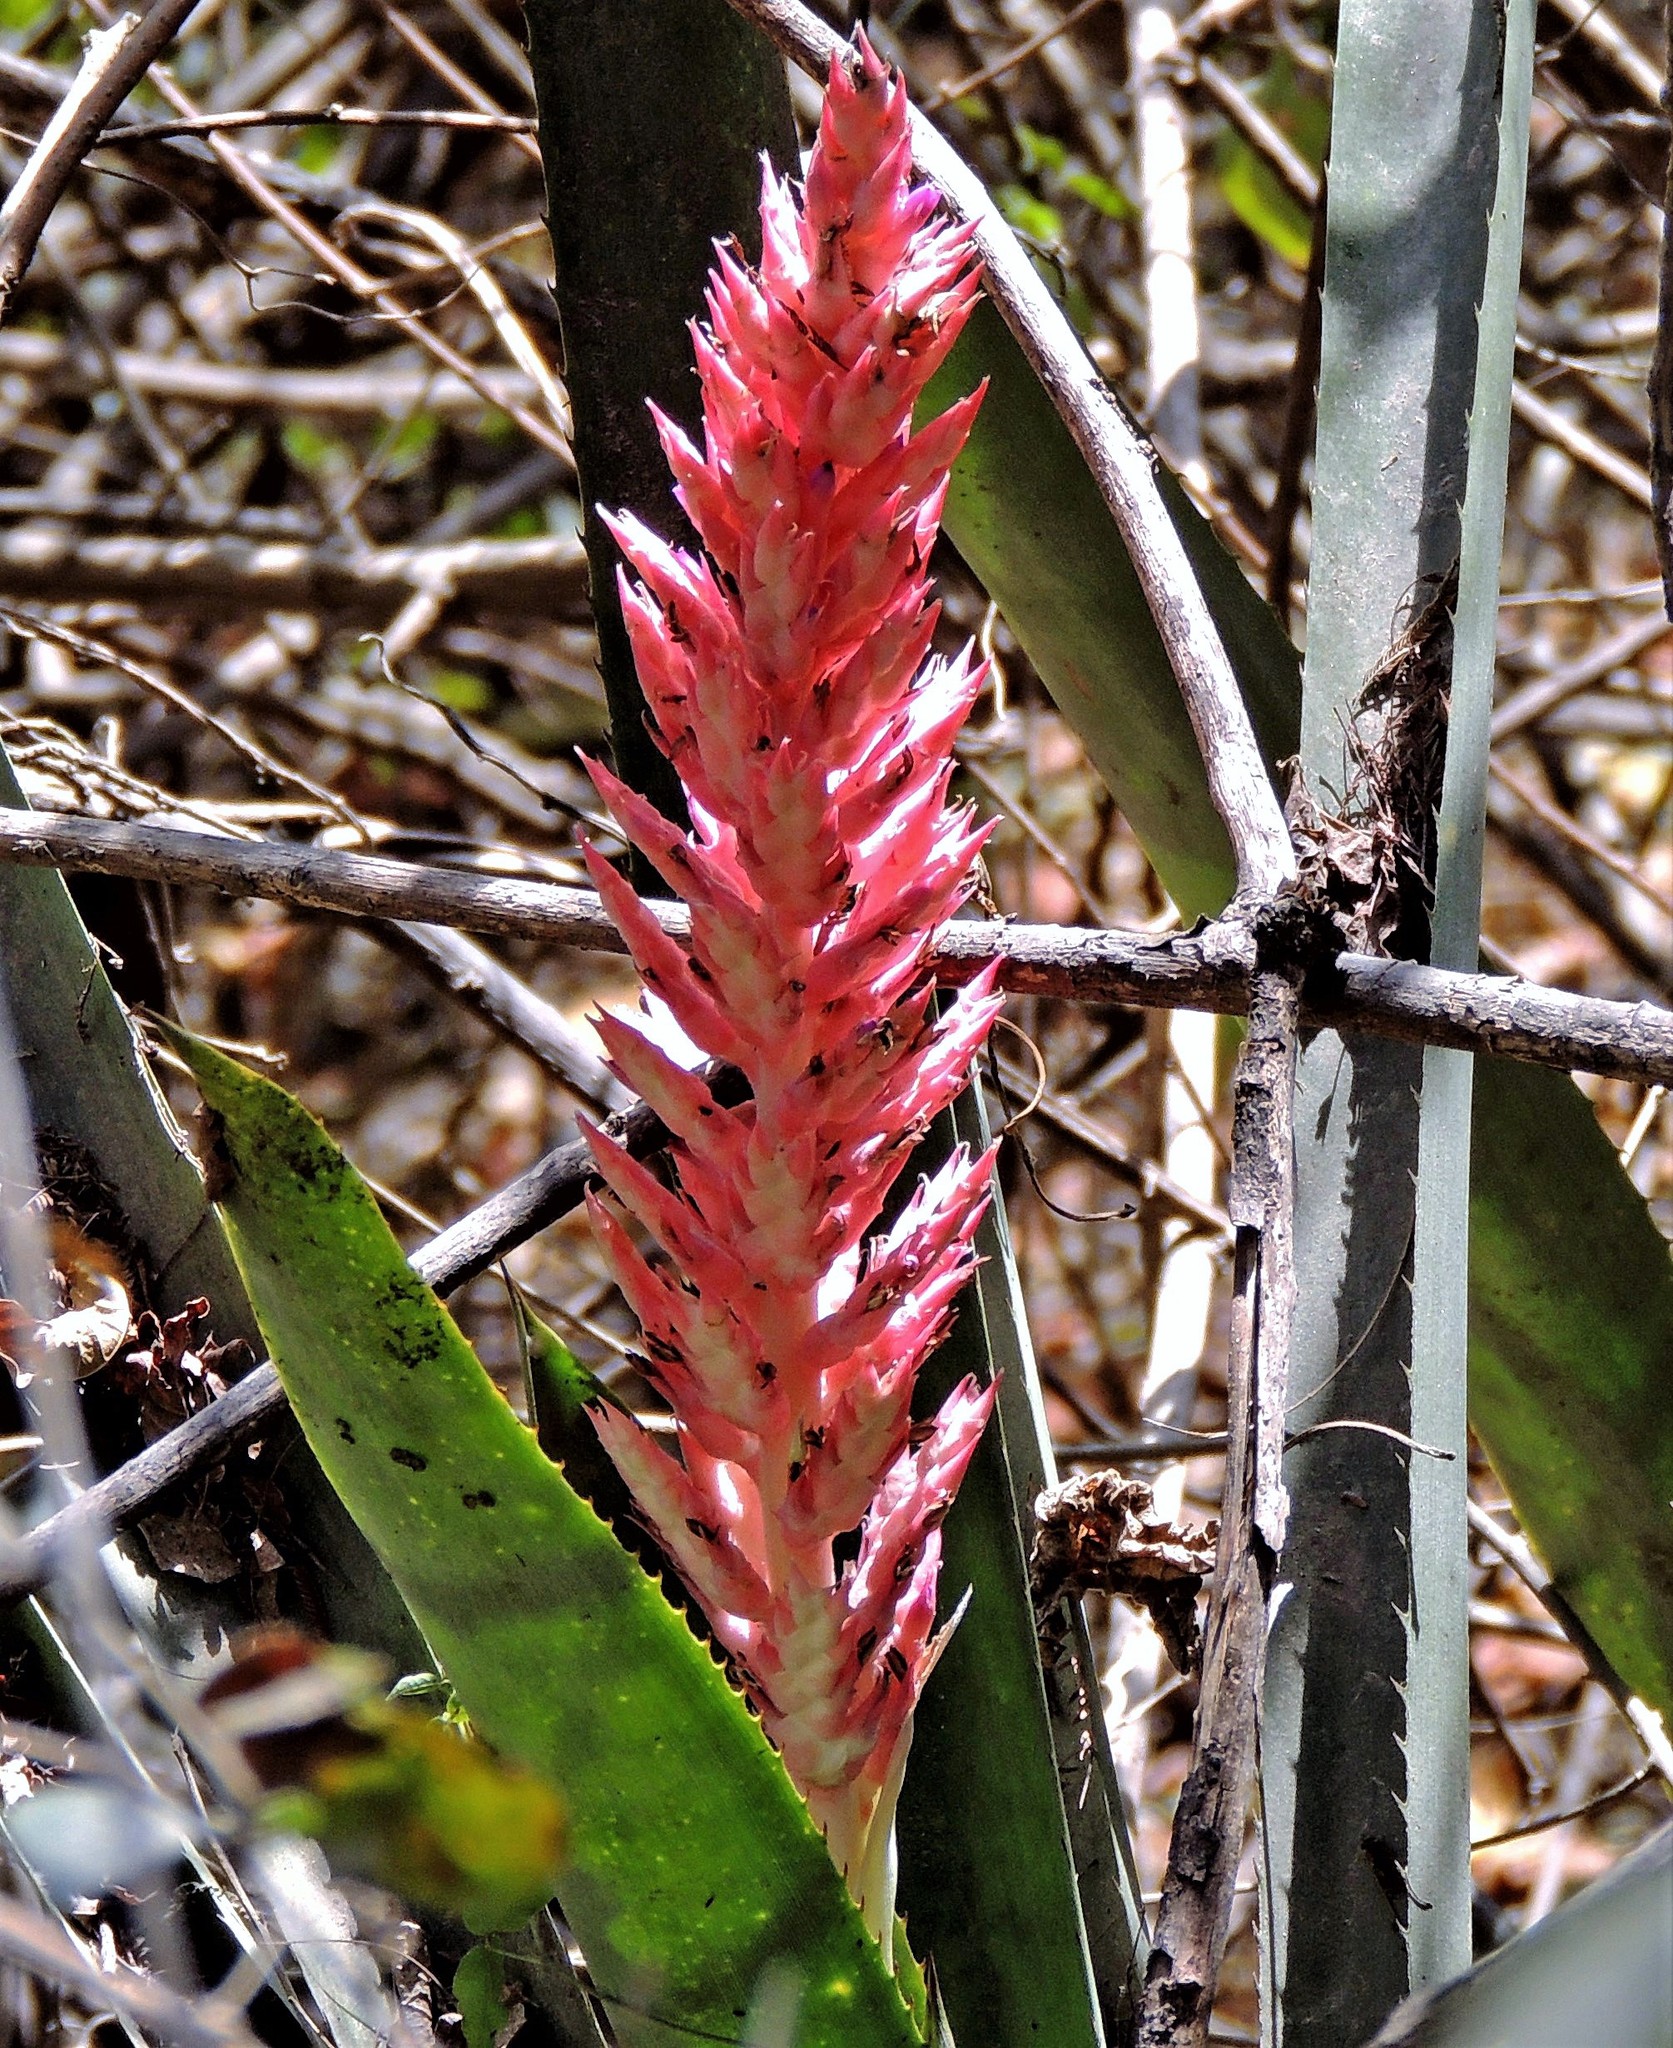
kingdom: Plantae
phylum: Tracheophyta
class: Liliopsida
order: Poales
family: Bromeliaceae
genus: Aechmea
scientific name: Aechmea distichantha
